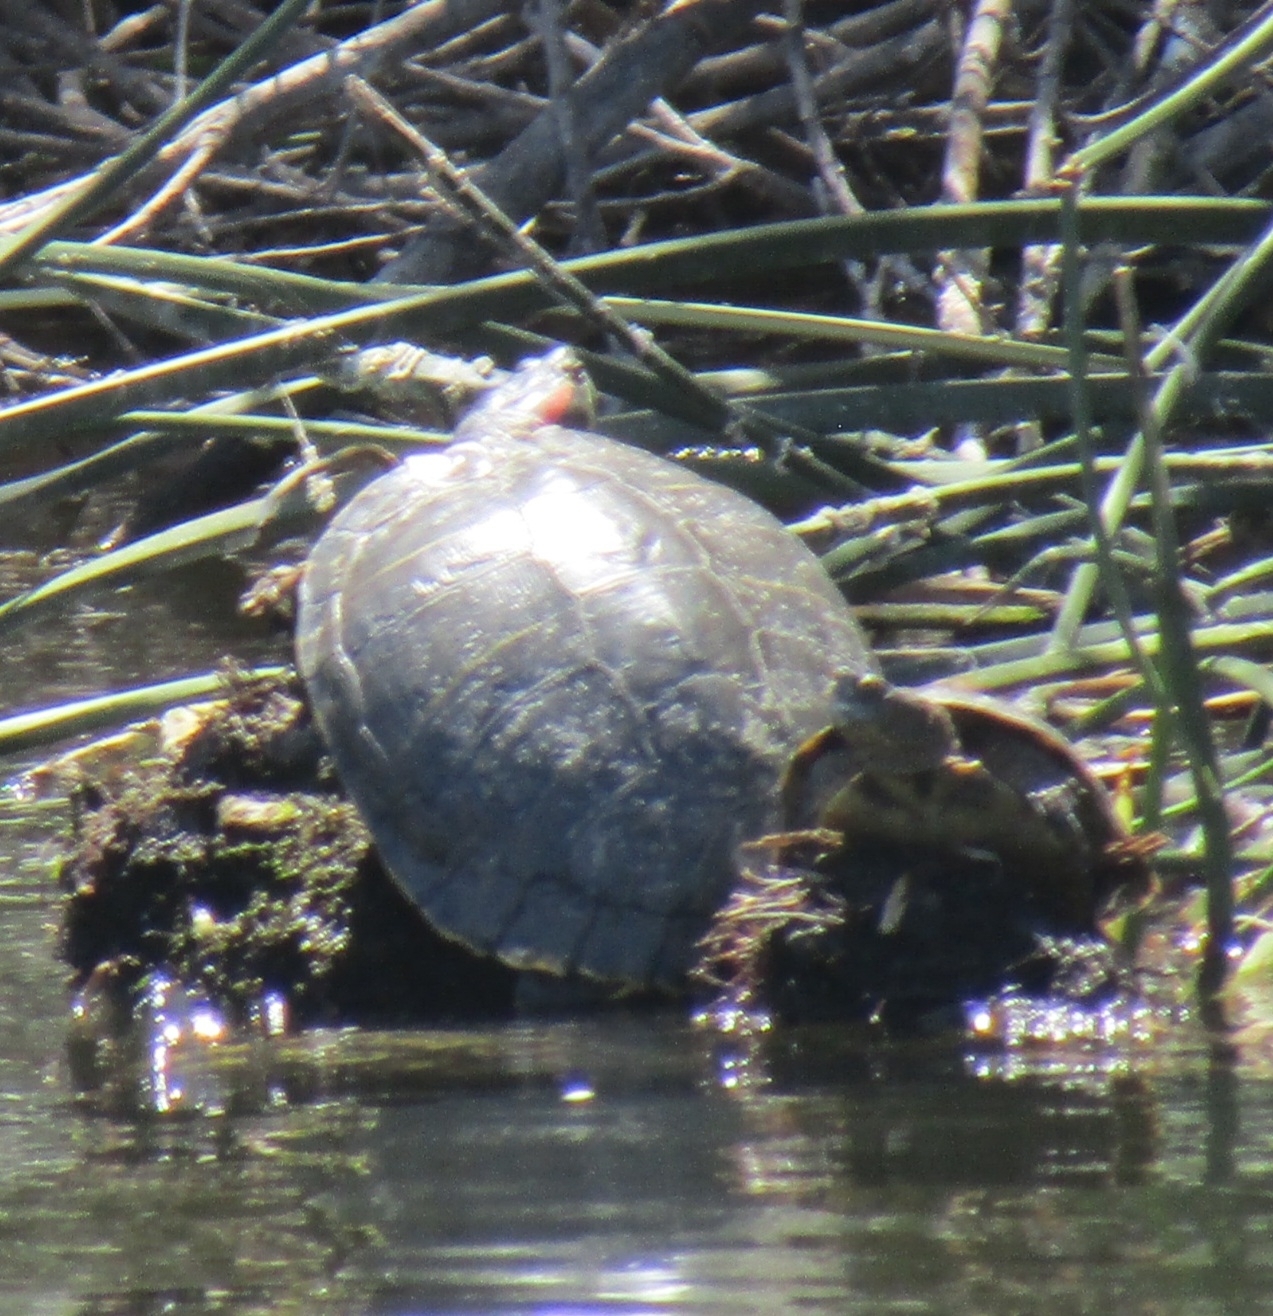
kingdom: Animalia
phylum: Chordata
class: Testudines
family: Emydidae
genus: Trachemys
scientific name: Trachemys scripta
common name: Slider
